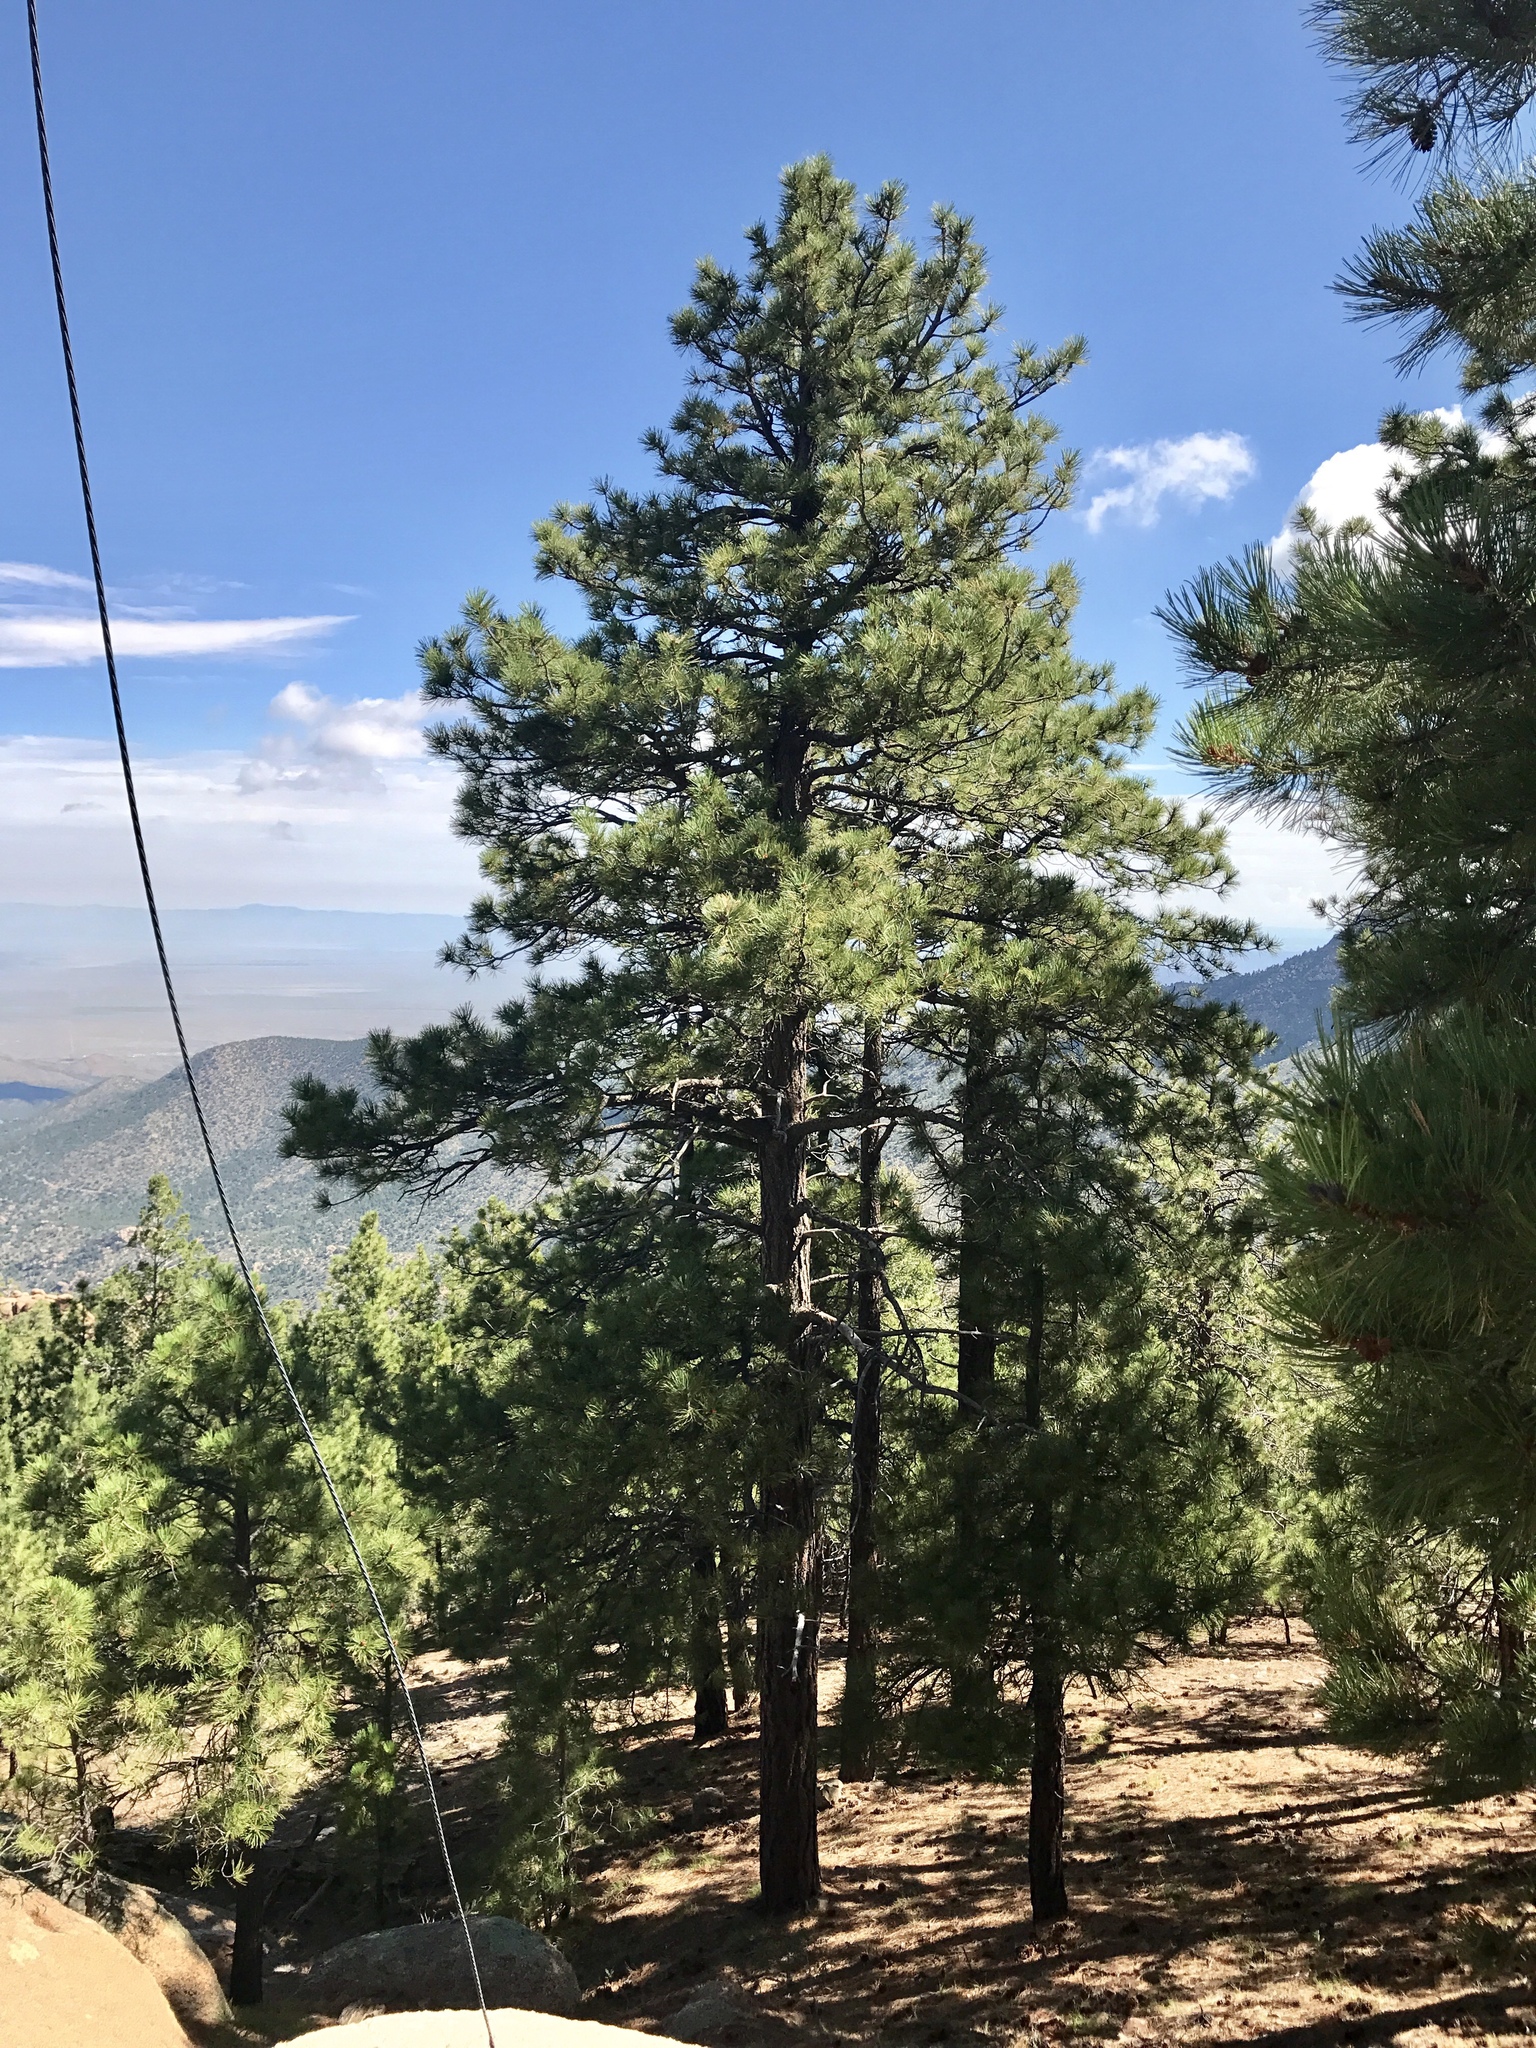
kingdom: Plantae
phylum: Tracheophyta
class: Pinopsida
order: Pinales
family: Pinaceae
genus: Pinus
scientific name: Pinus ponderosa
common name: Western yellow-pine
